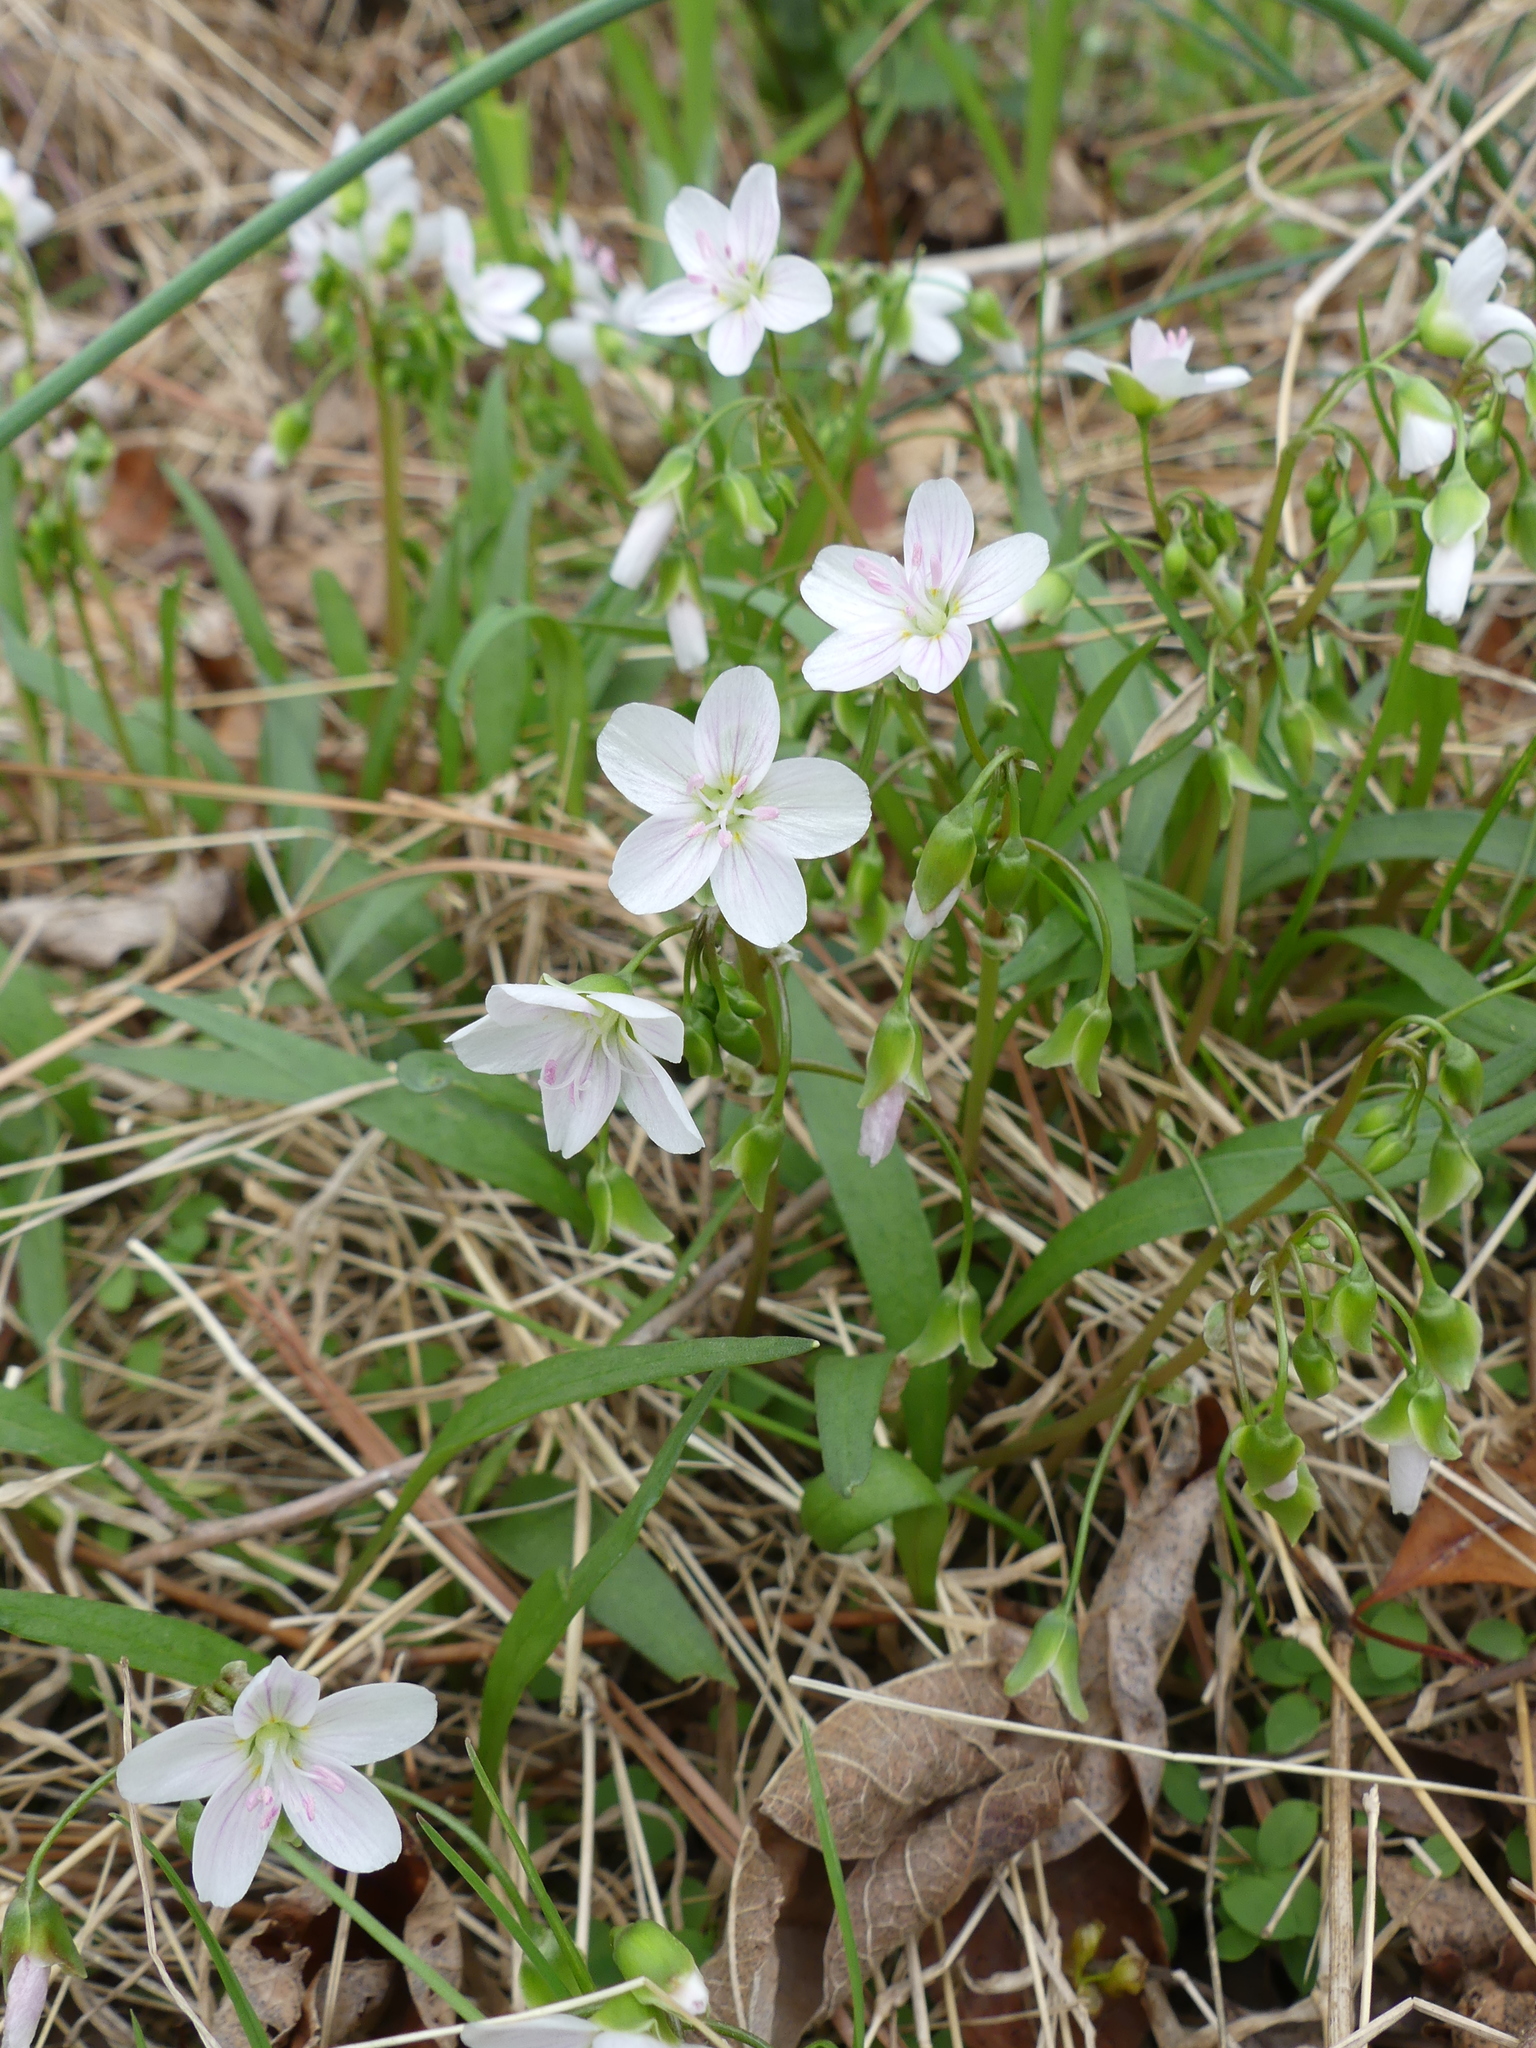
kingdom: Plantae
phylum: Tracheophyta
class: Magnoliopsida
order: Caryophyllales
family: Montiaceae
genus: Claytonia
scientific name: Claytonia virginica
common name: Virginia springbeauty
